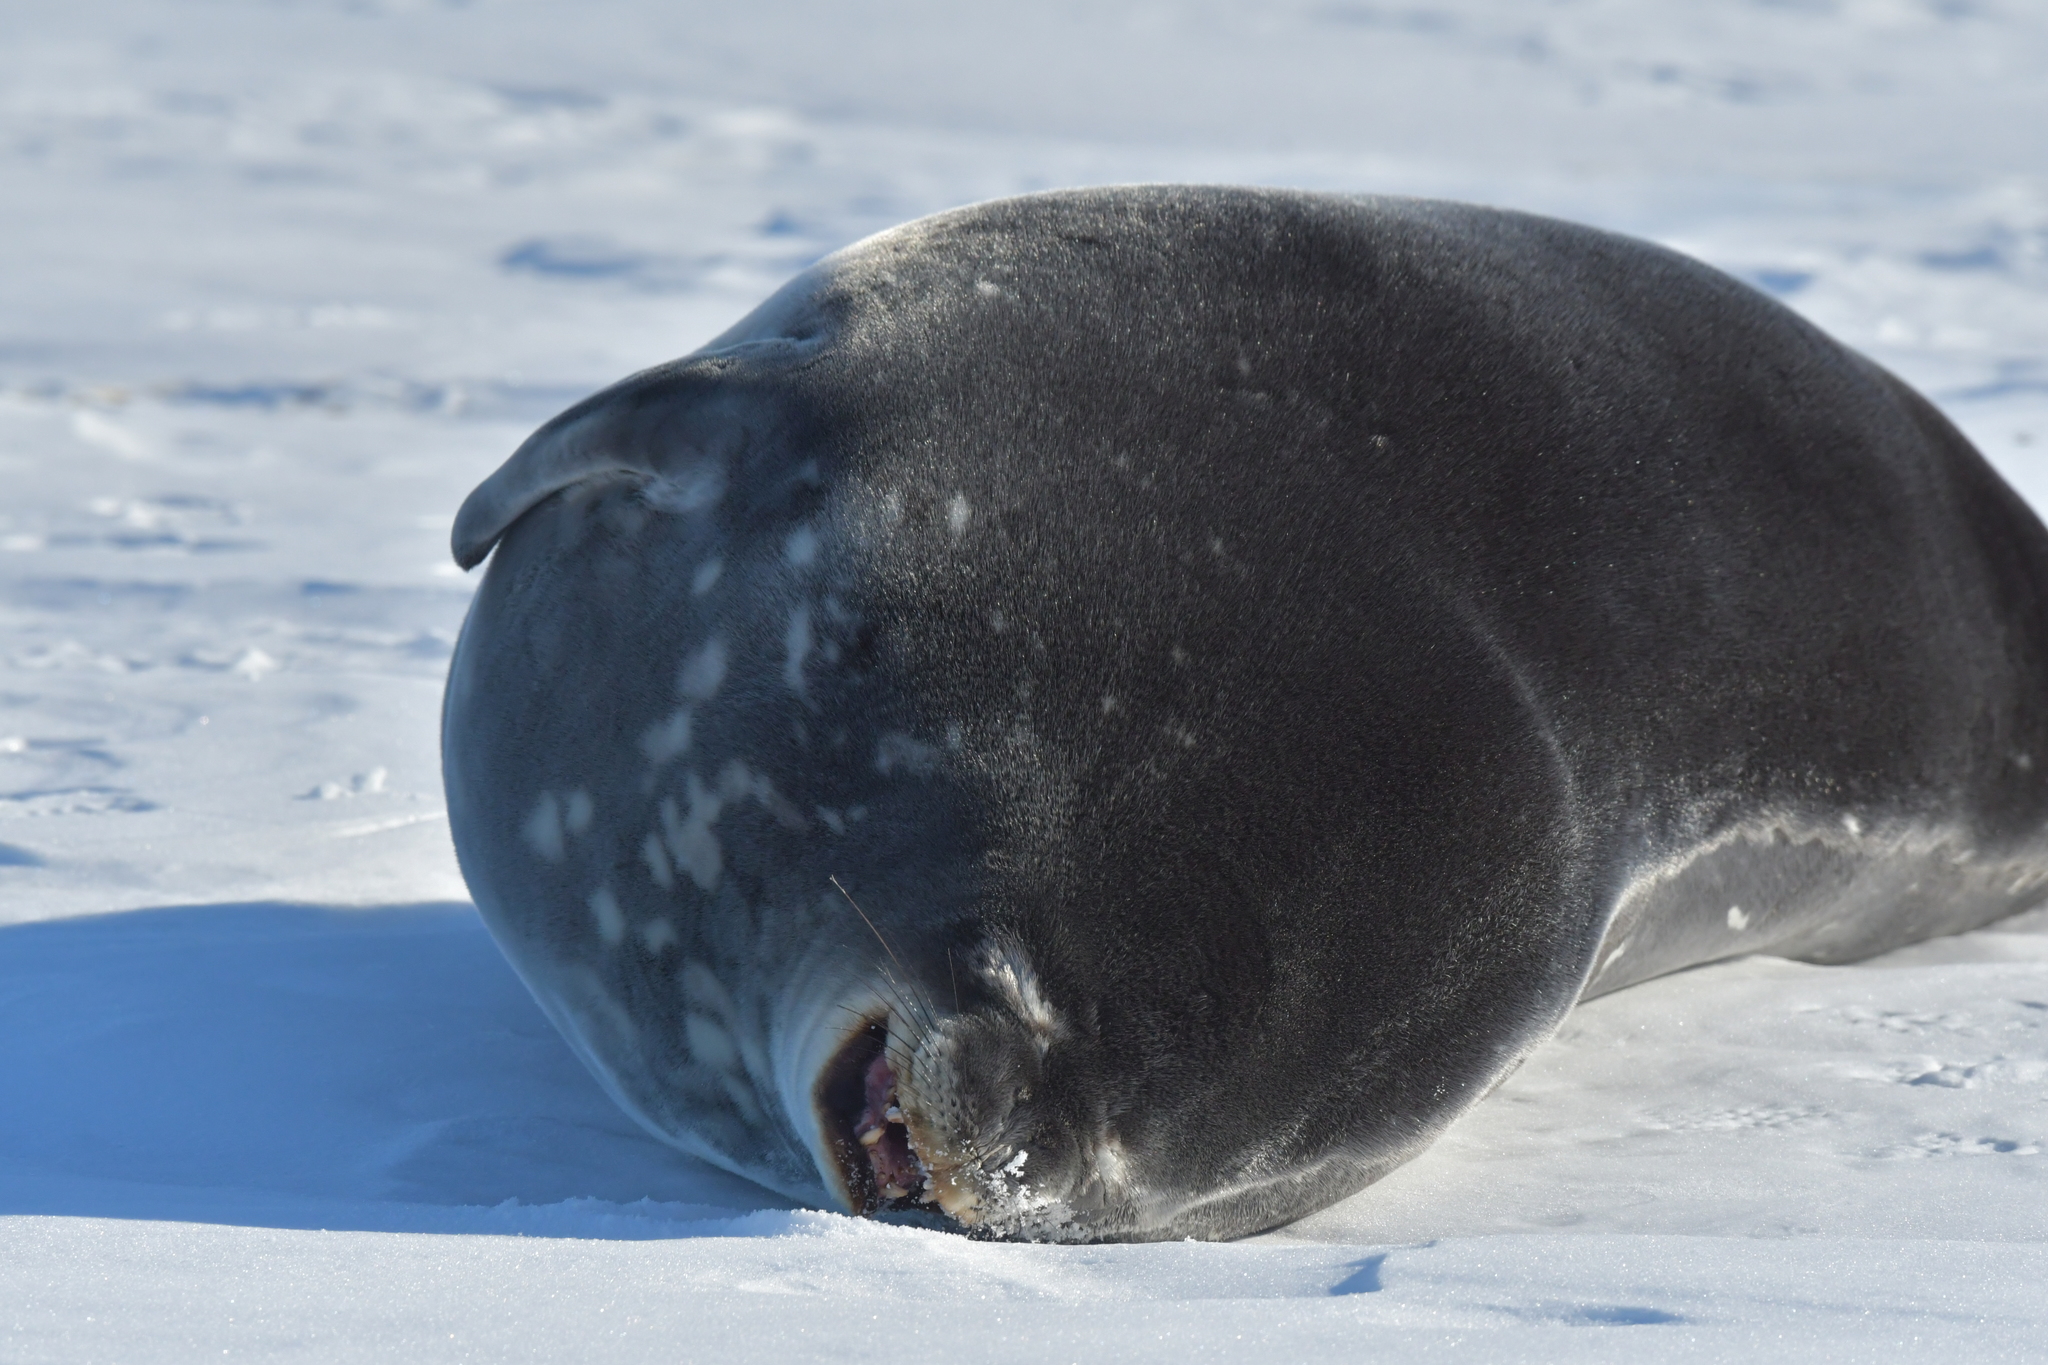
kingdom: Animalia
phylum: Chordata
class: Mammalia
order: Carnivora
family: Phocidae
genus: Leptonychotes
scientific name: Leptonychotes weddellii
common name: Weddell seal
